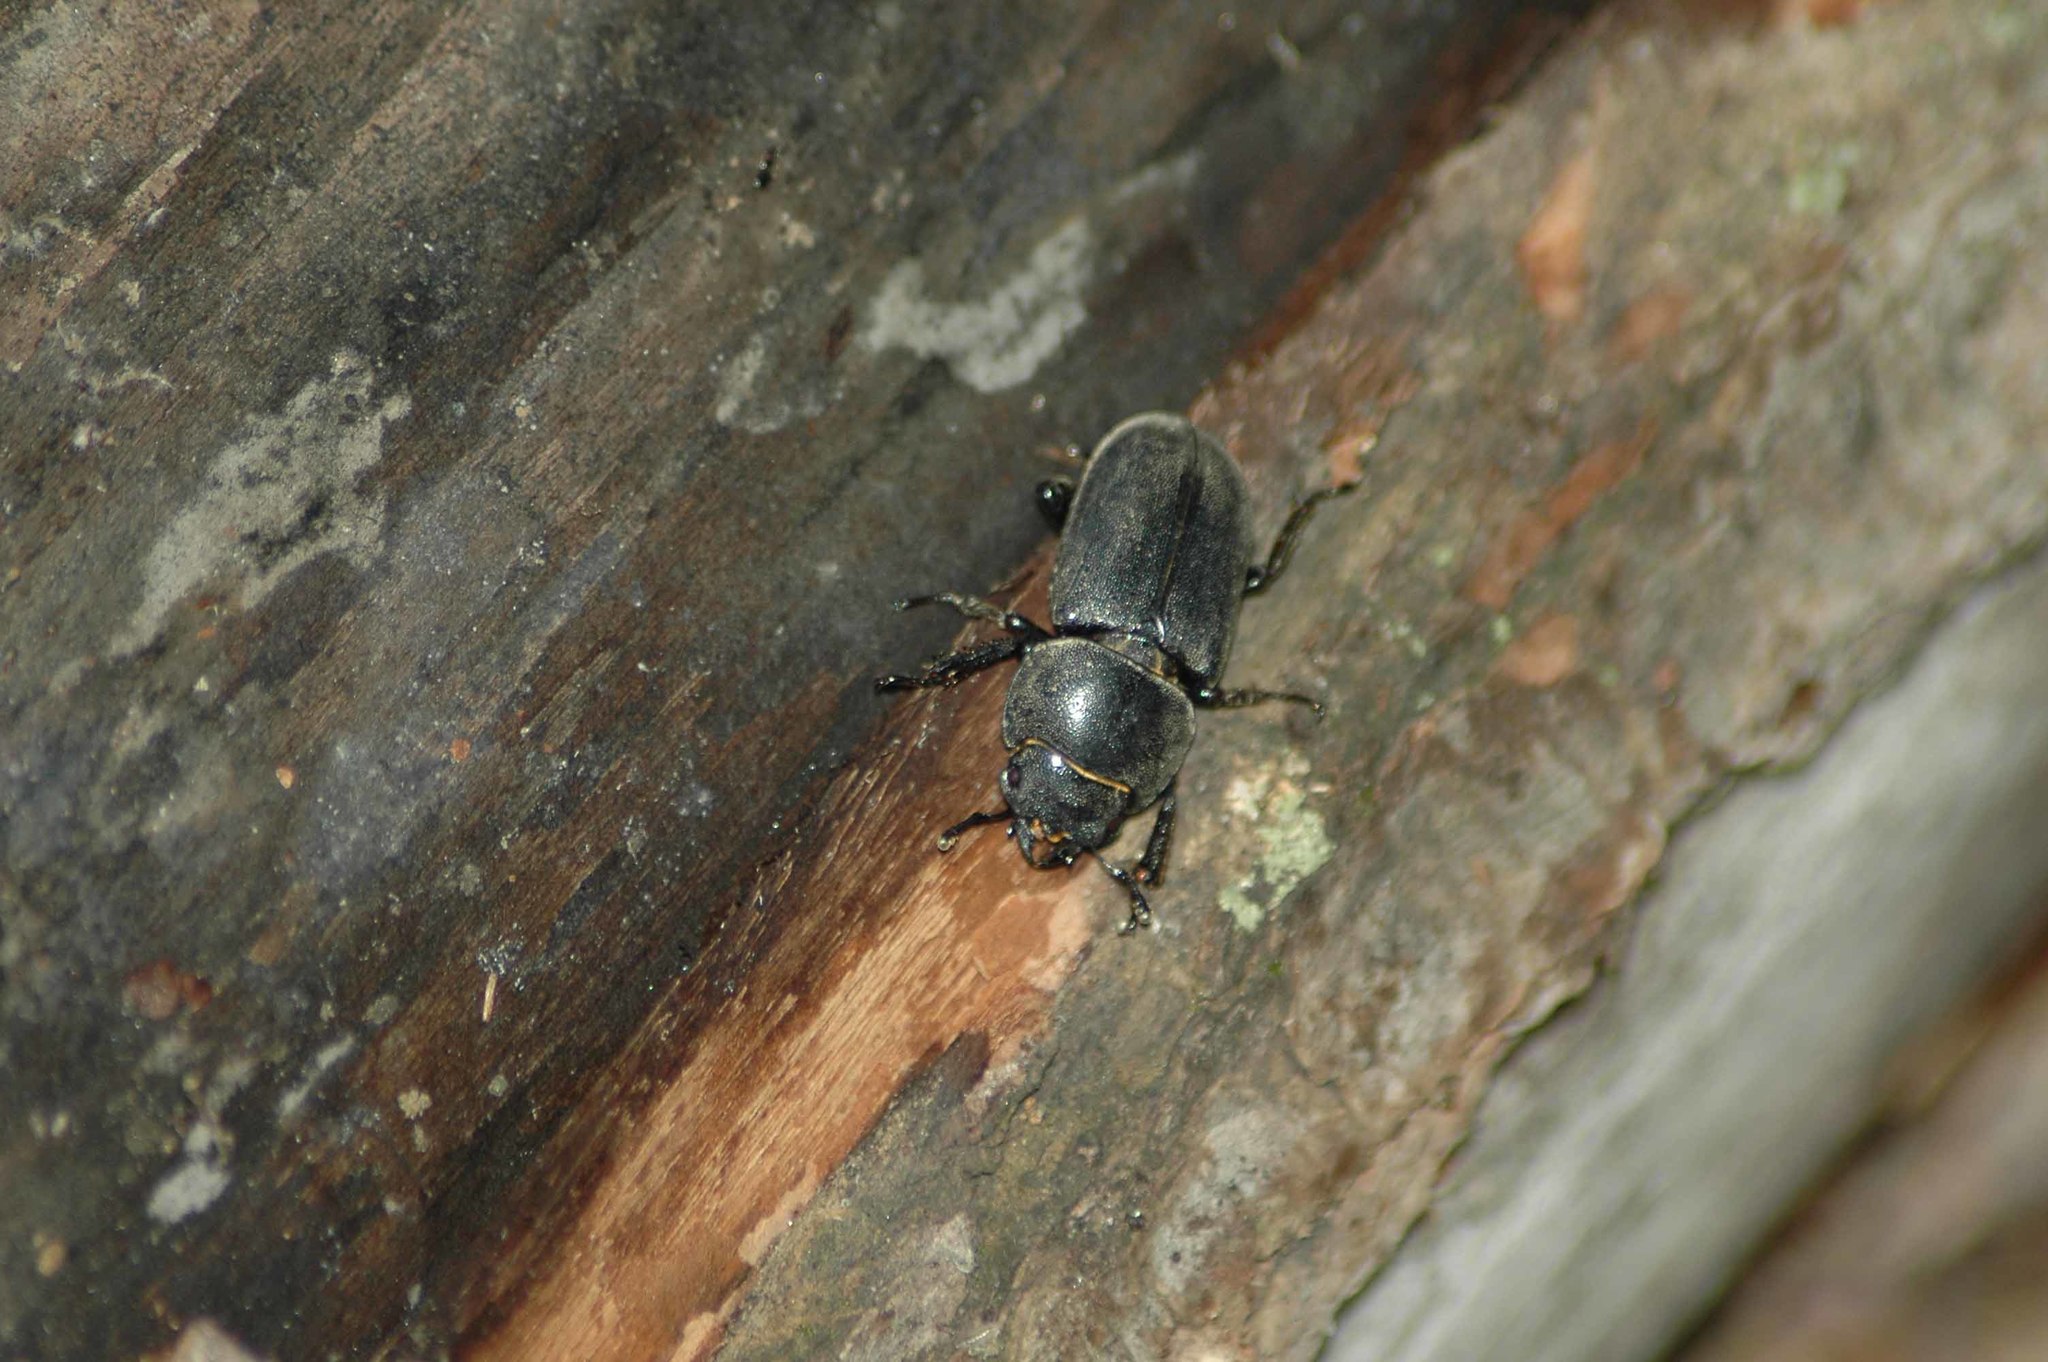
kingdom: Animalia
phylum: Arthropoda
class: Insecta
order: Coleoptera
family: Lucanidae
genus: Dorcus
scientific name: Dorcus parallelipipedus
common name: Lesser stag beetle
